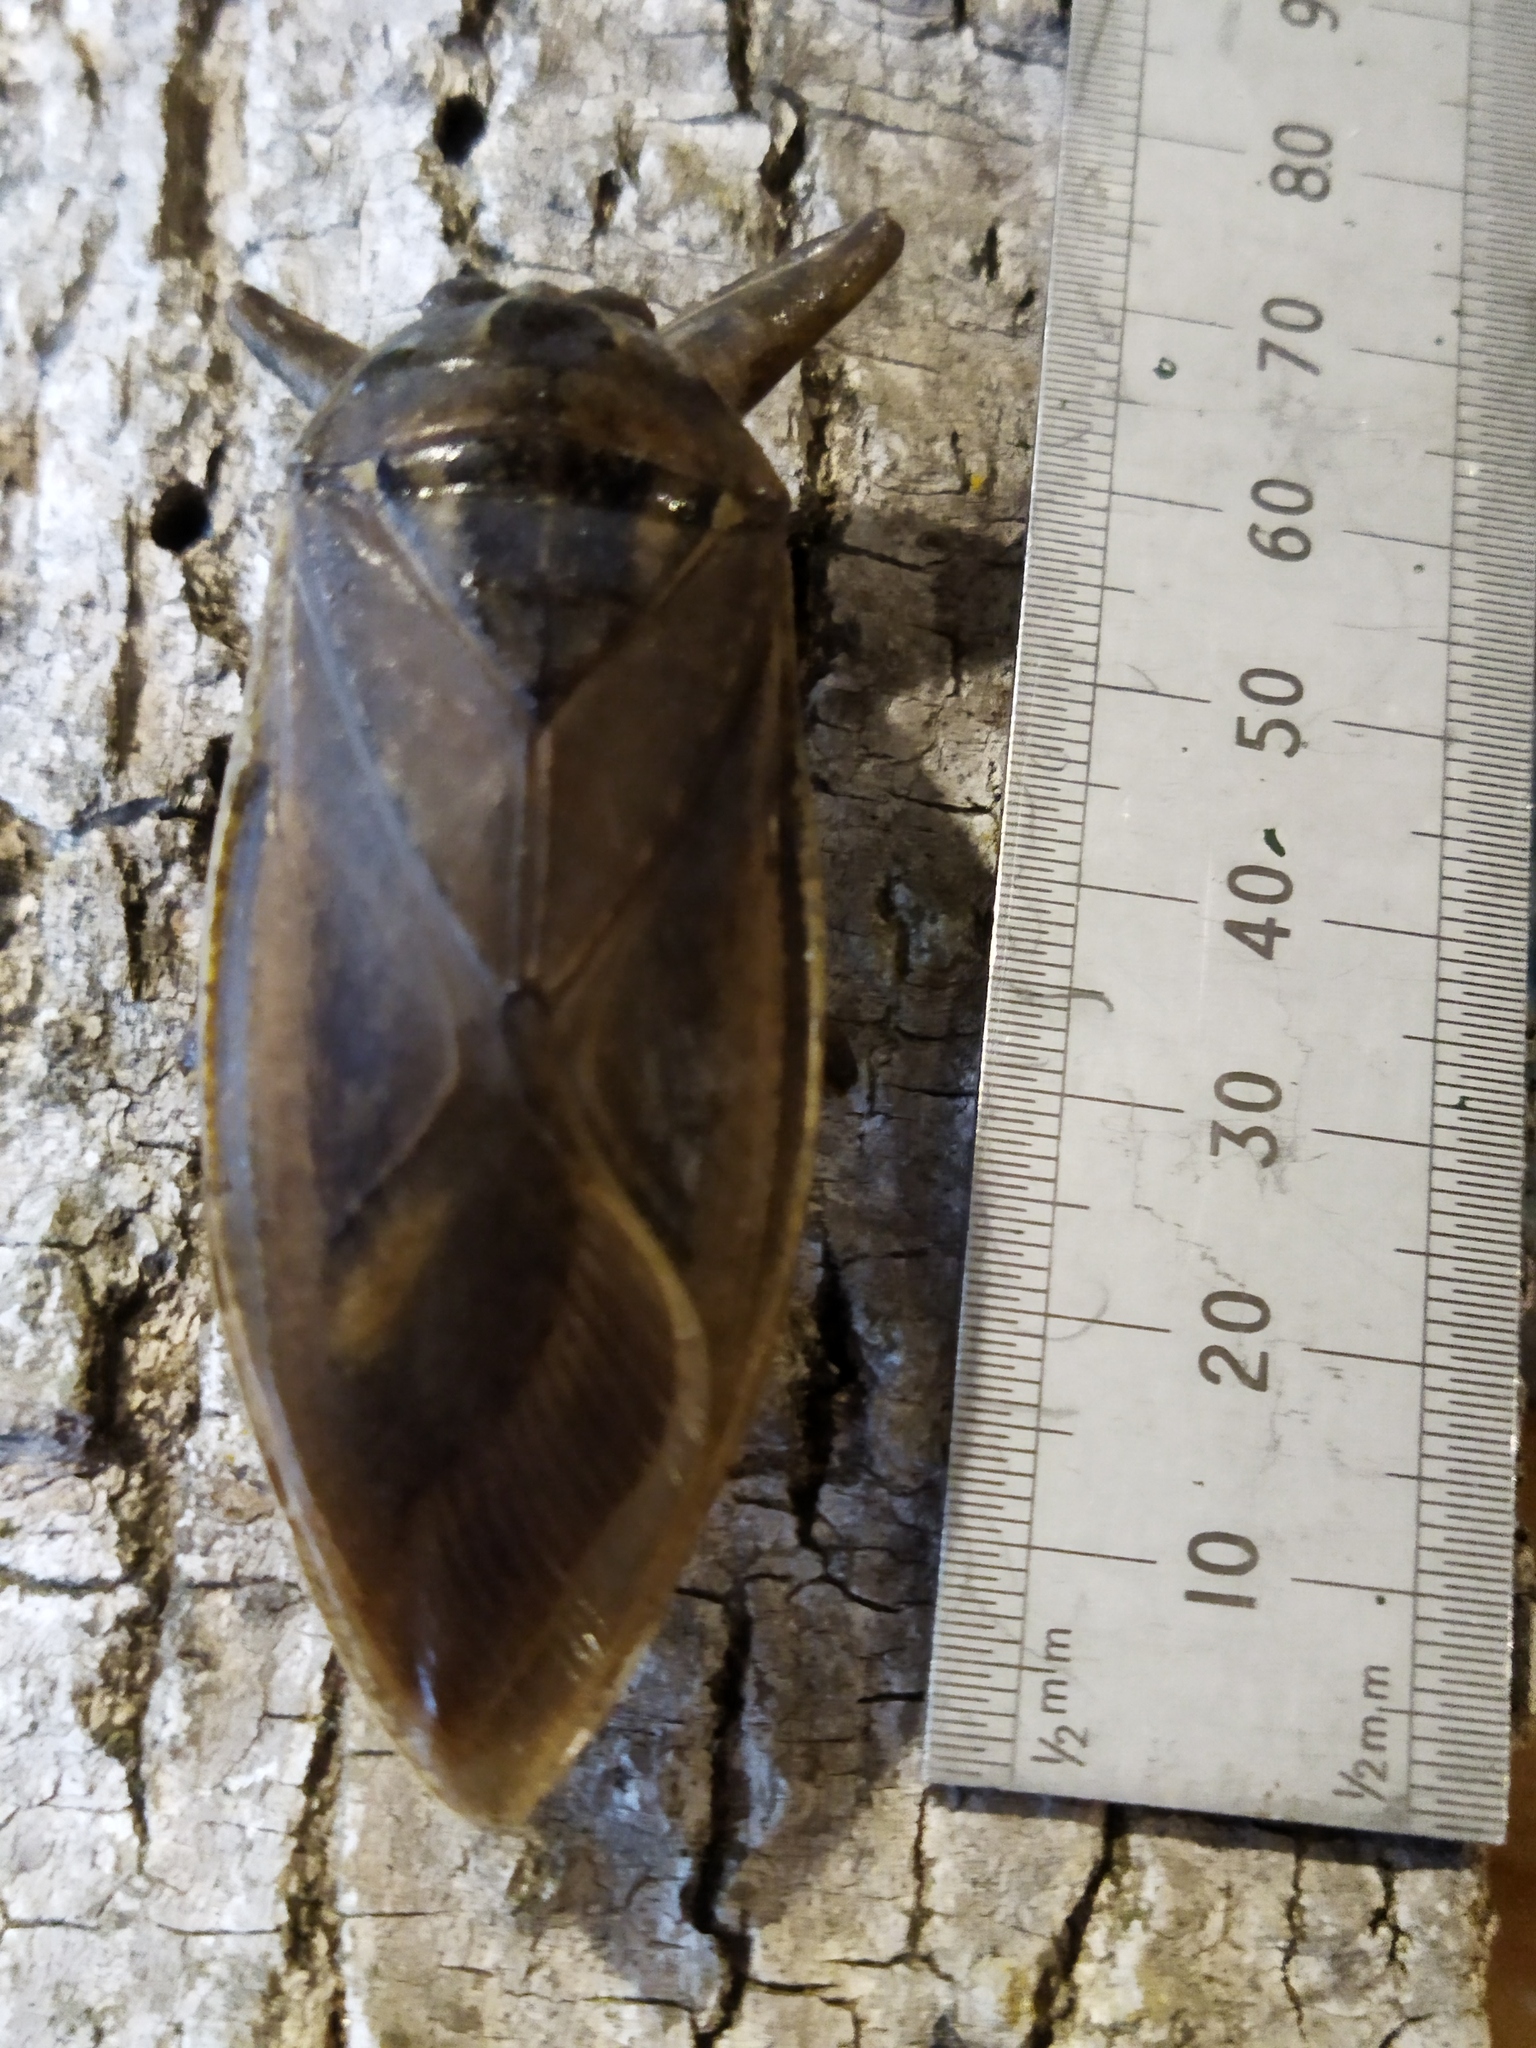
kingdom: Animalia
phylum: Arthropoda
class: Insecta
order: Hemiptera
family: Belostomatidae
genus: Lethocerus
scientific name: Lethocerus patruelis
